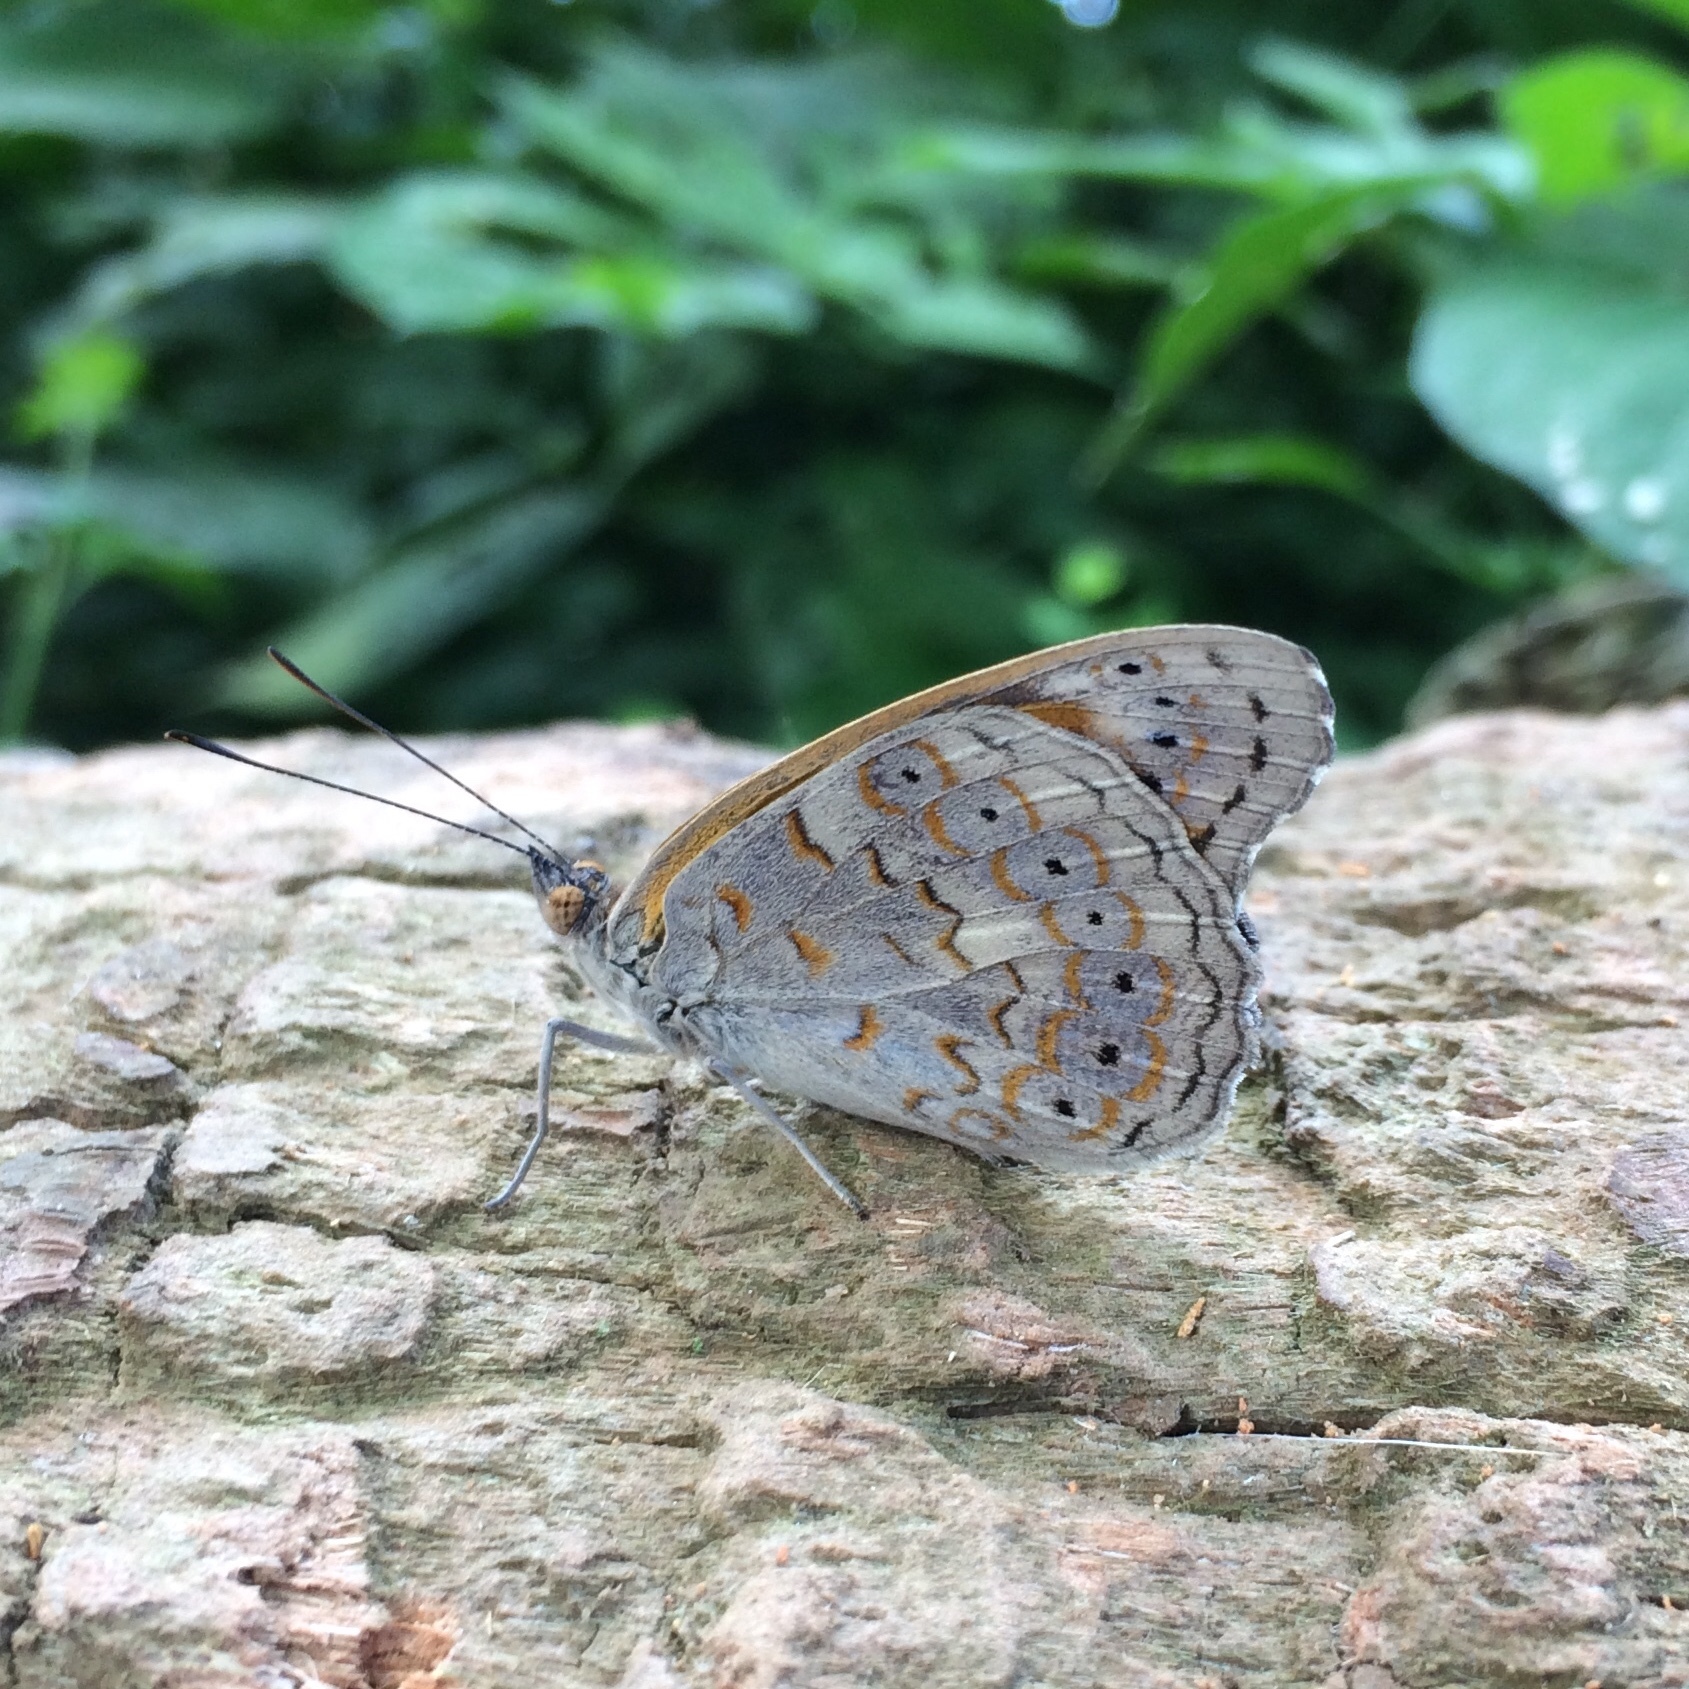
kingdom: Animalia
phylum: Arthropoda
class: Insecta
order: Lepidoptera
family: Nymphalidae
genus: Asterope
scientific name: Asterope boisduvali
